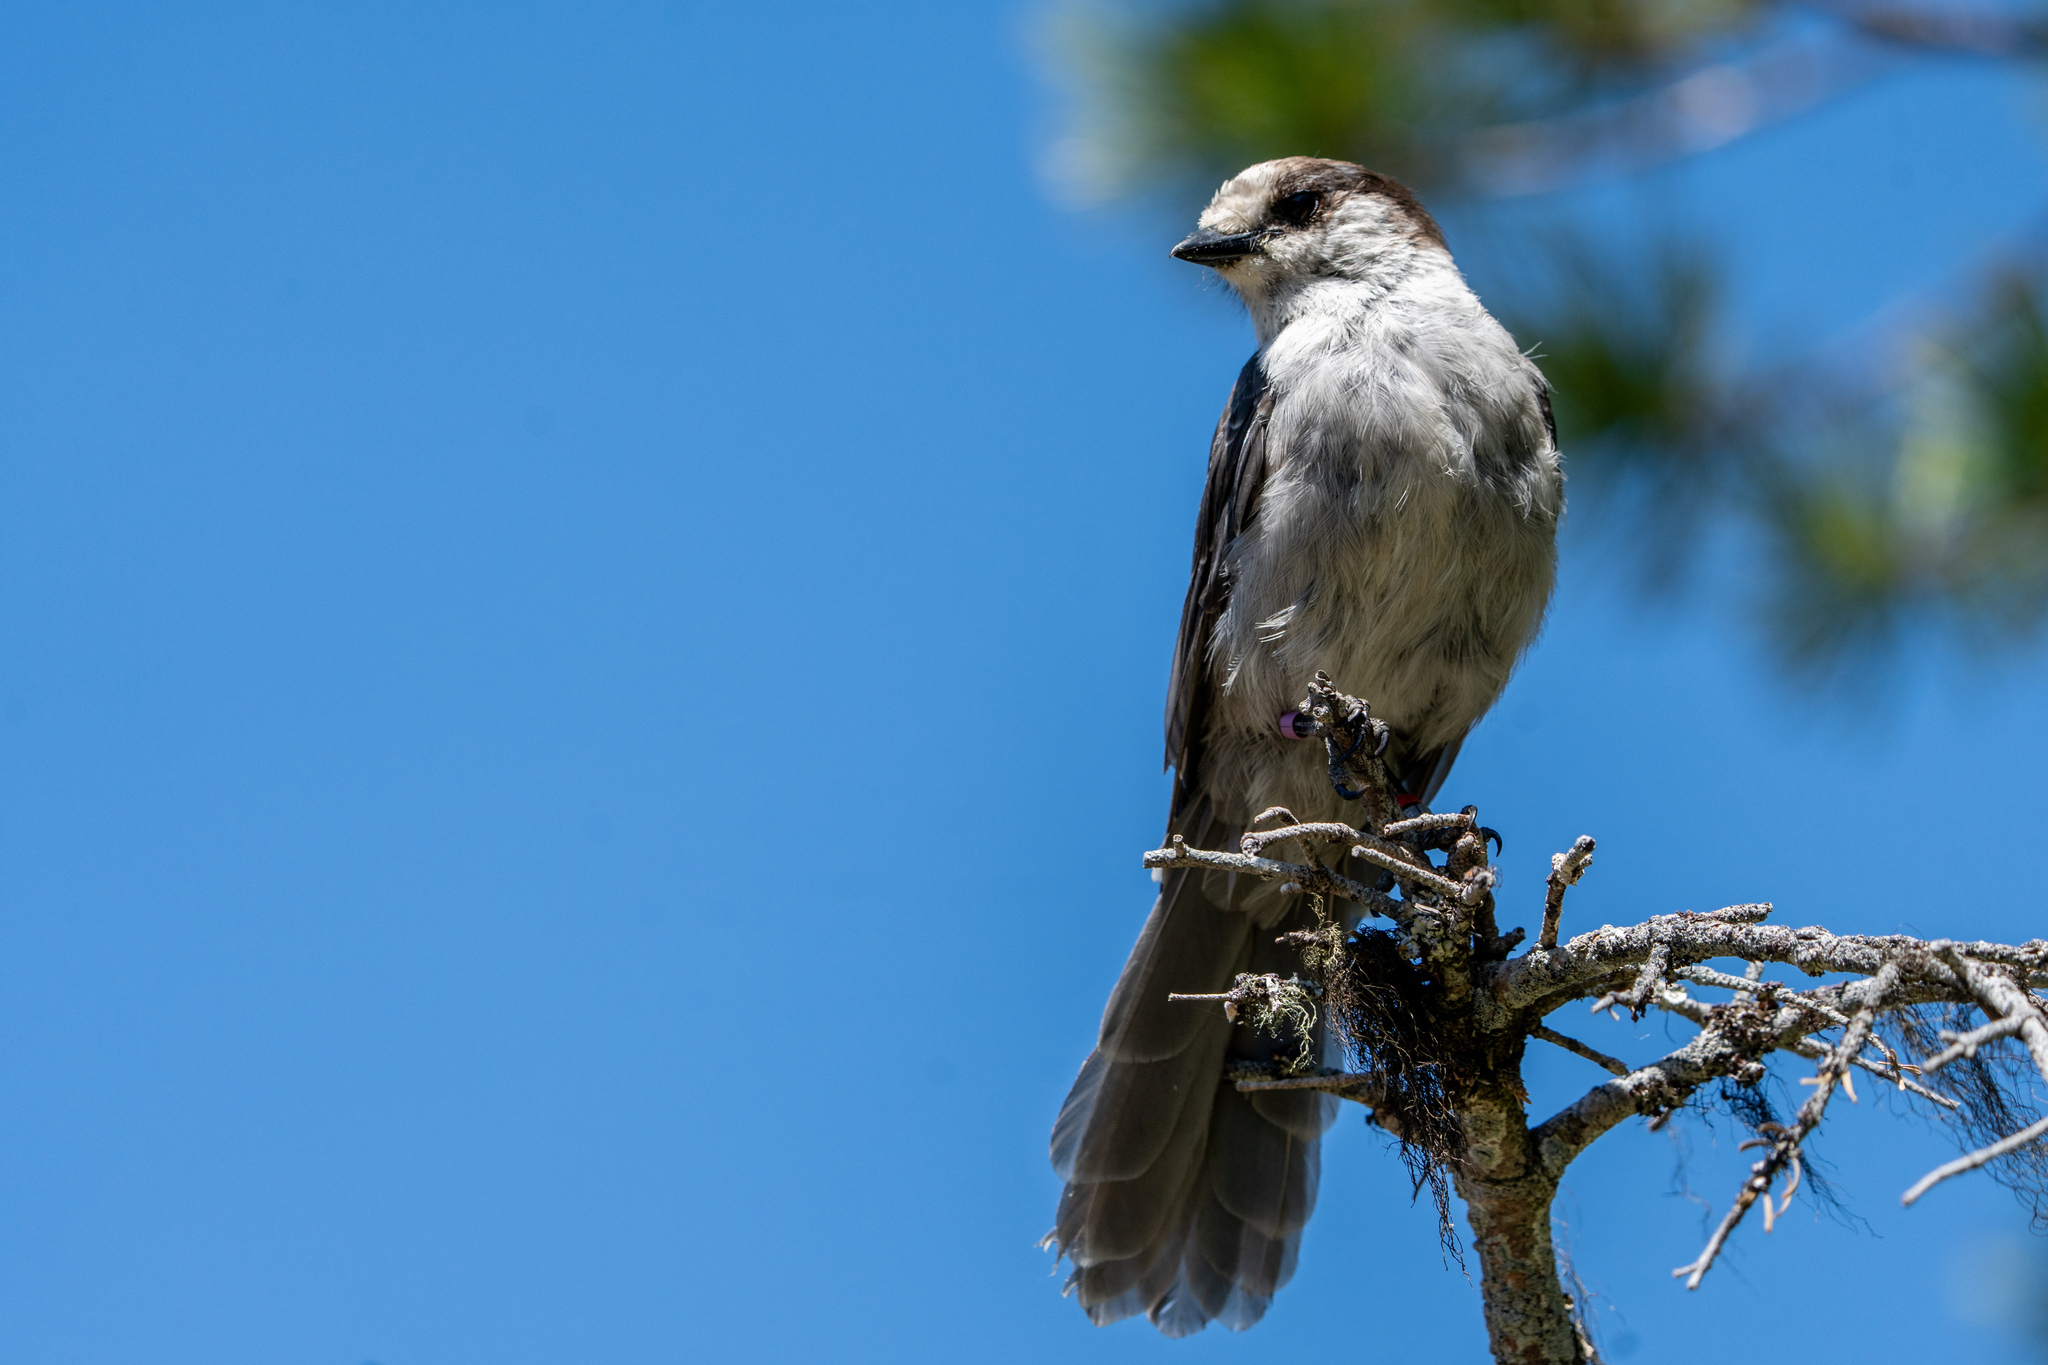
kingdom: Animalia
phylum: Chordata
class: Aves
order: Passeriformes
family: Corvidae
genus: Perisoreus
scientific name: Perisoreus canadensis
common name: Gray jay
